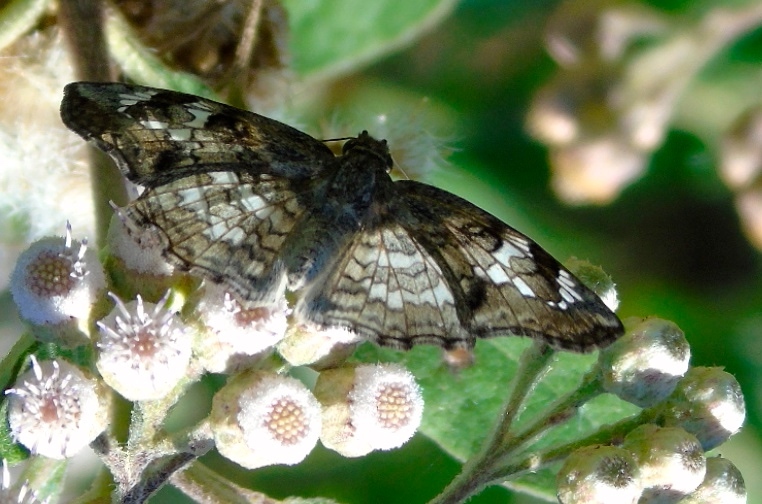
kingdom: Animalia
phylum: Arthropoda
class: Insecta
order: Lepidoptera
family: Hesperiidae
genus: Antigonus
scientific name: Antigonus emorsa
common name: White spurwing
